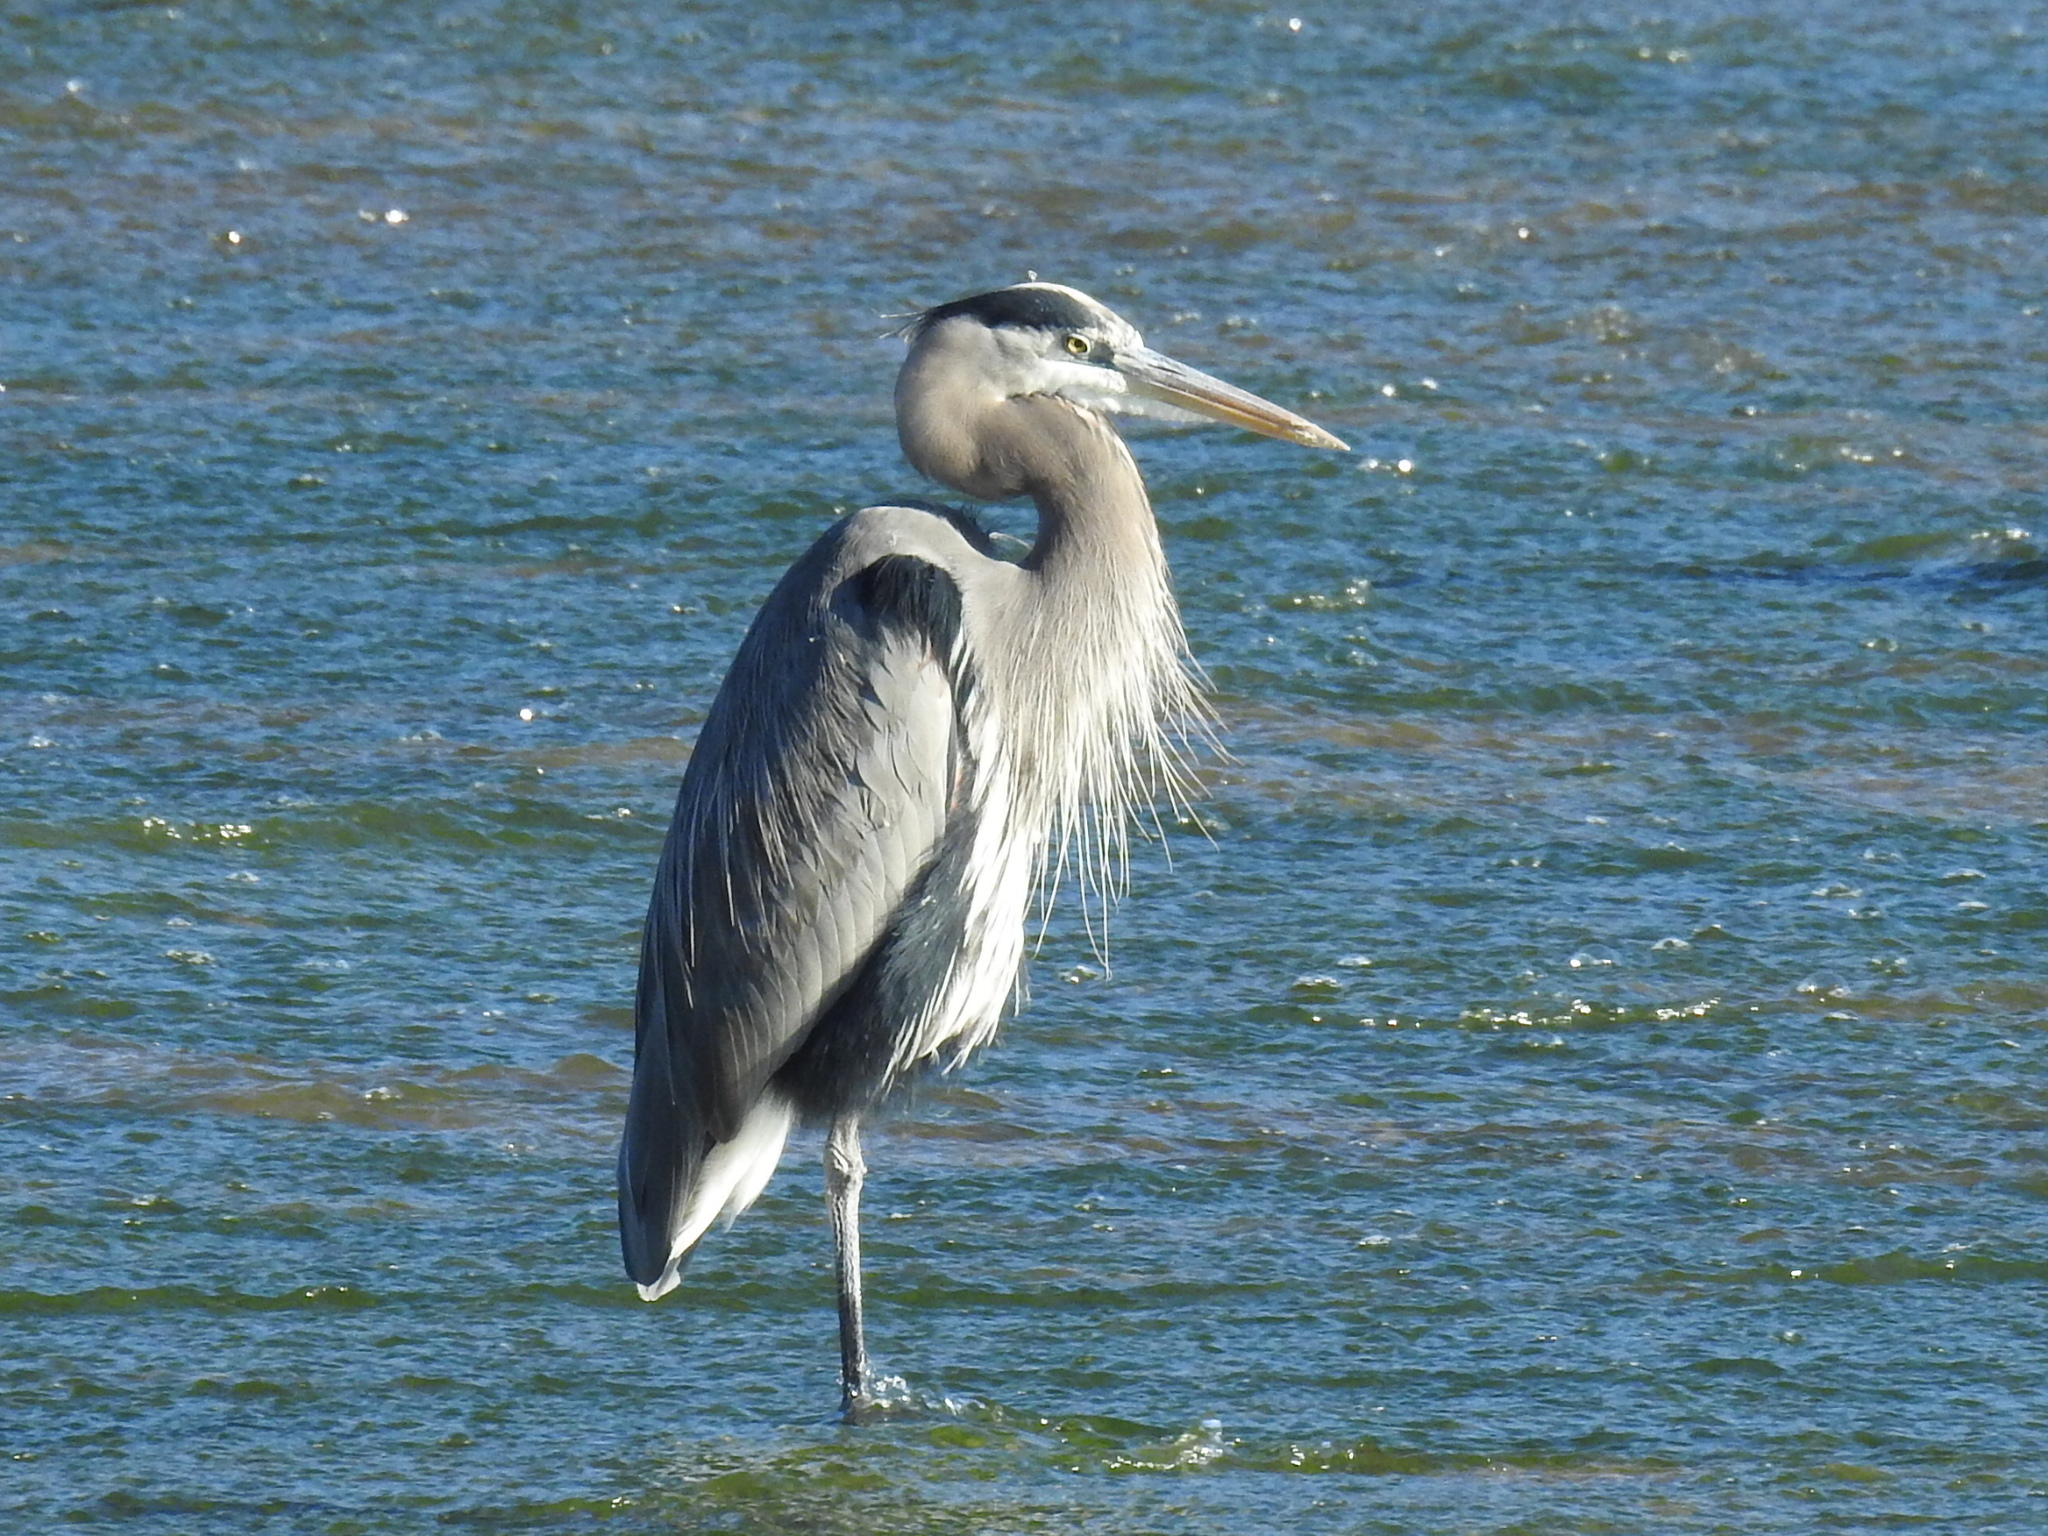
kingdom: Animalia
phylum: Chordata
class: Aves
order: Pelecaniformes
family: Ardeidae
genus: Ardea
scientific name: Ardea herodias
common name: Great blue heron
